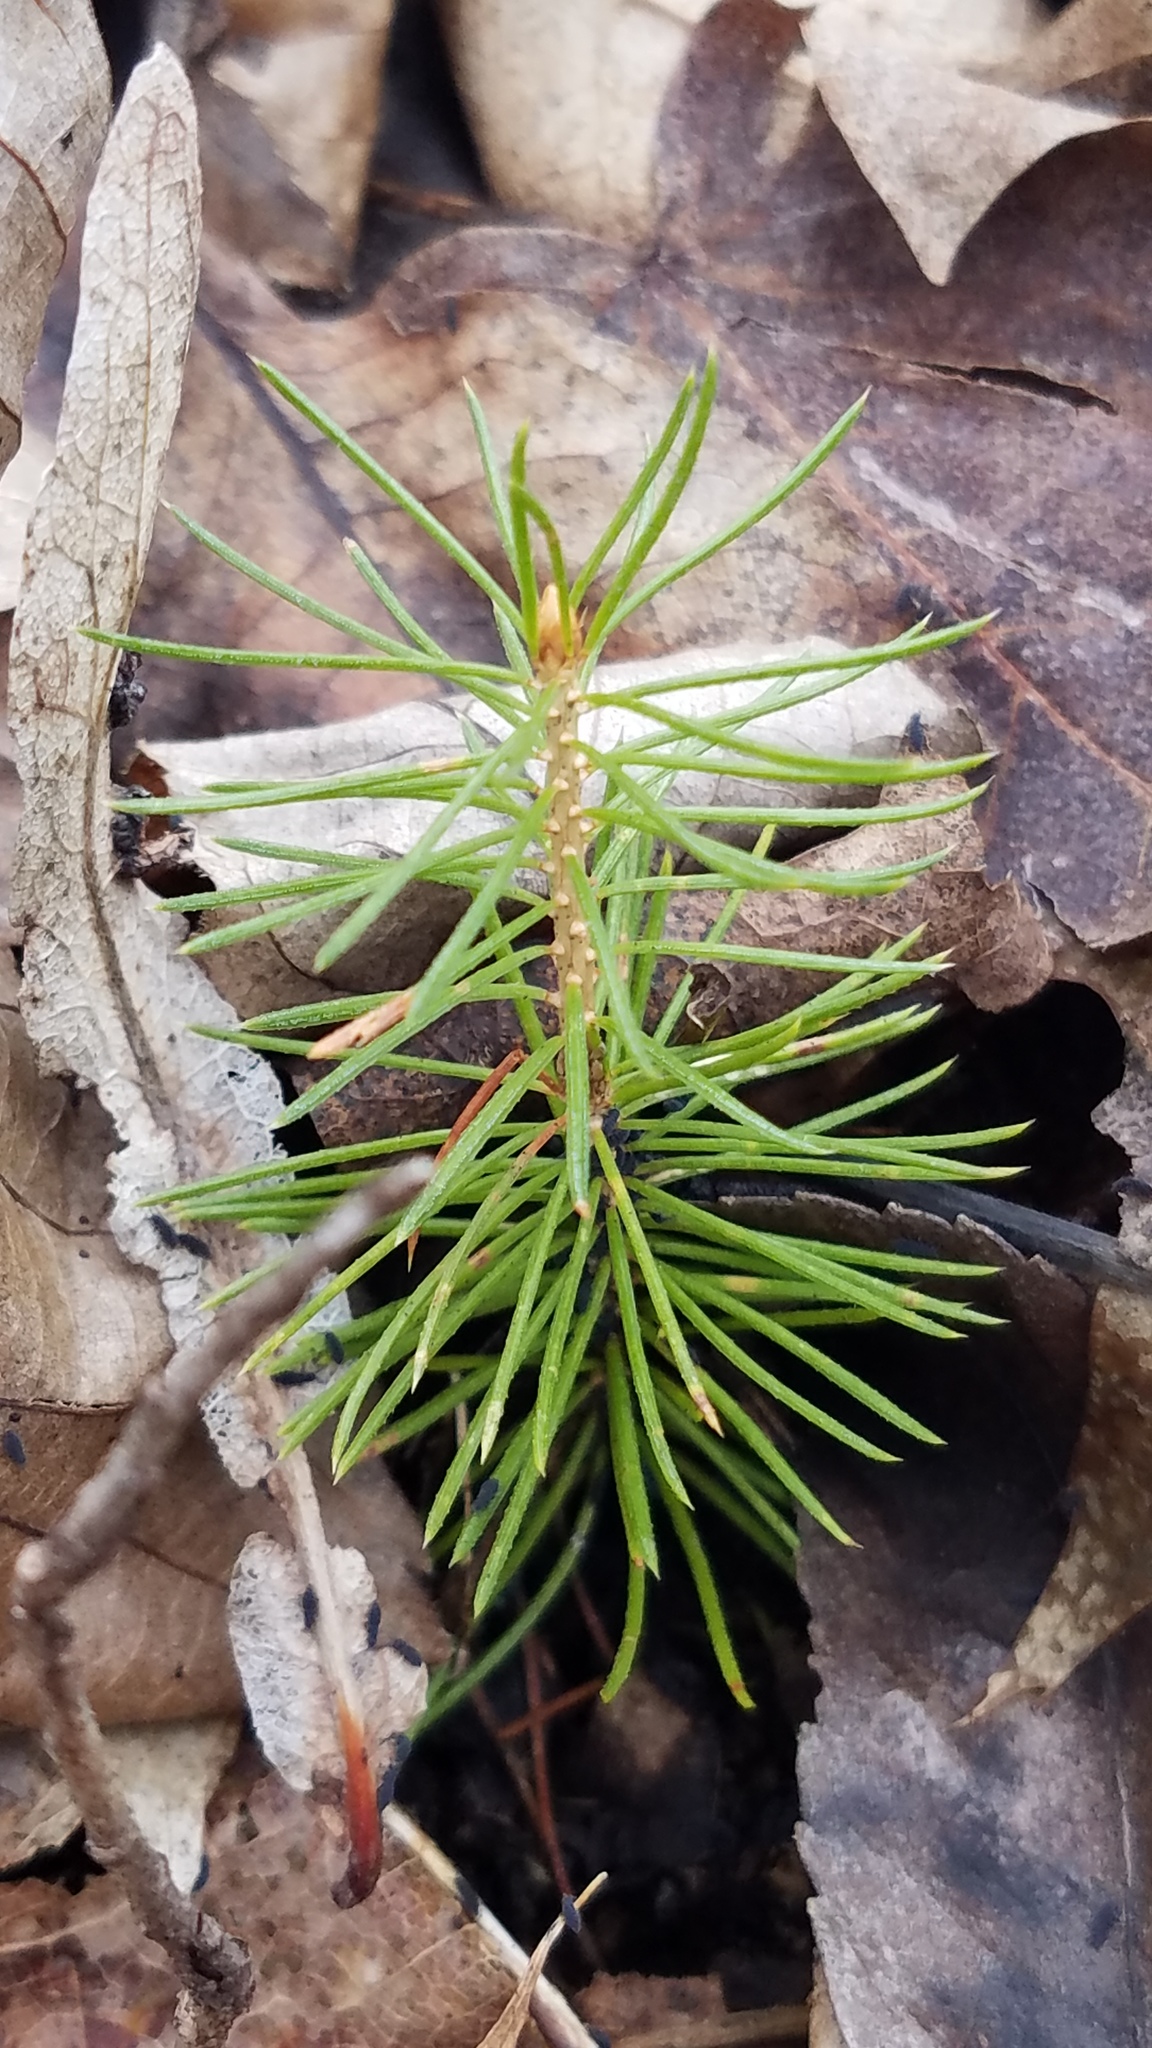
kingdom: Plantae
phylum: Tracheophyta
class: Pinopsida
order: Pinales
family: Pinaceae
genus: Picea
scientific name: Picea abies
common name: Norway spruce
